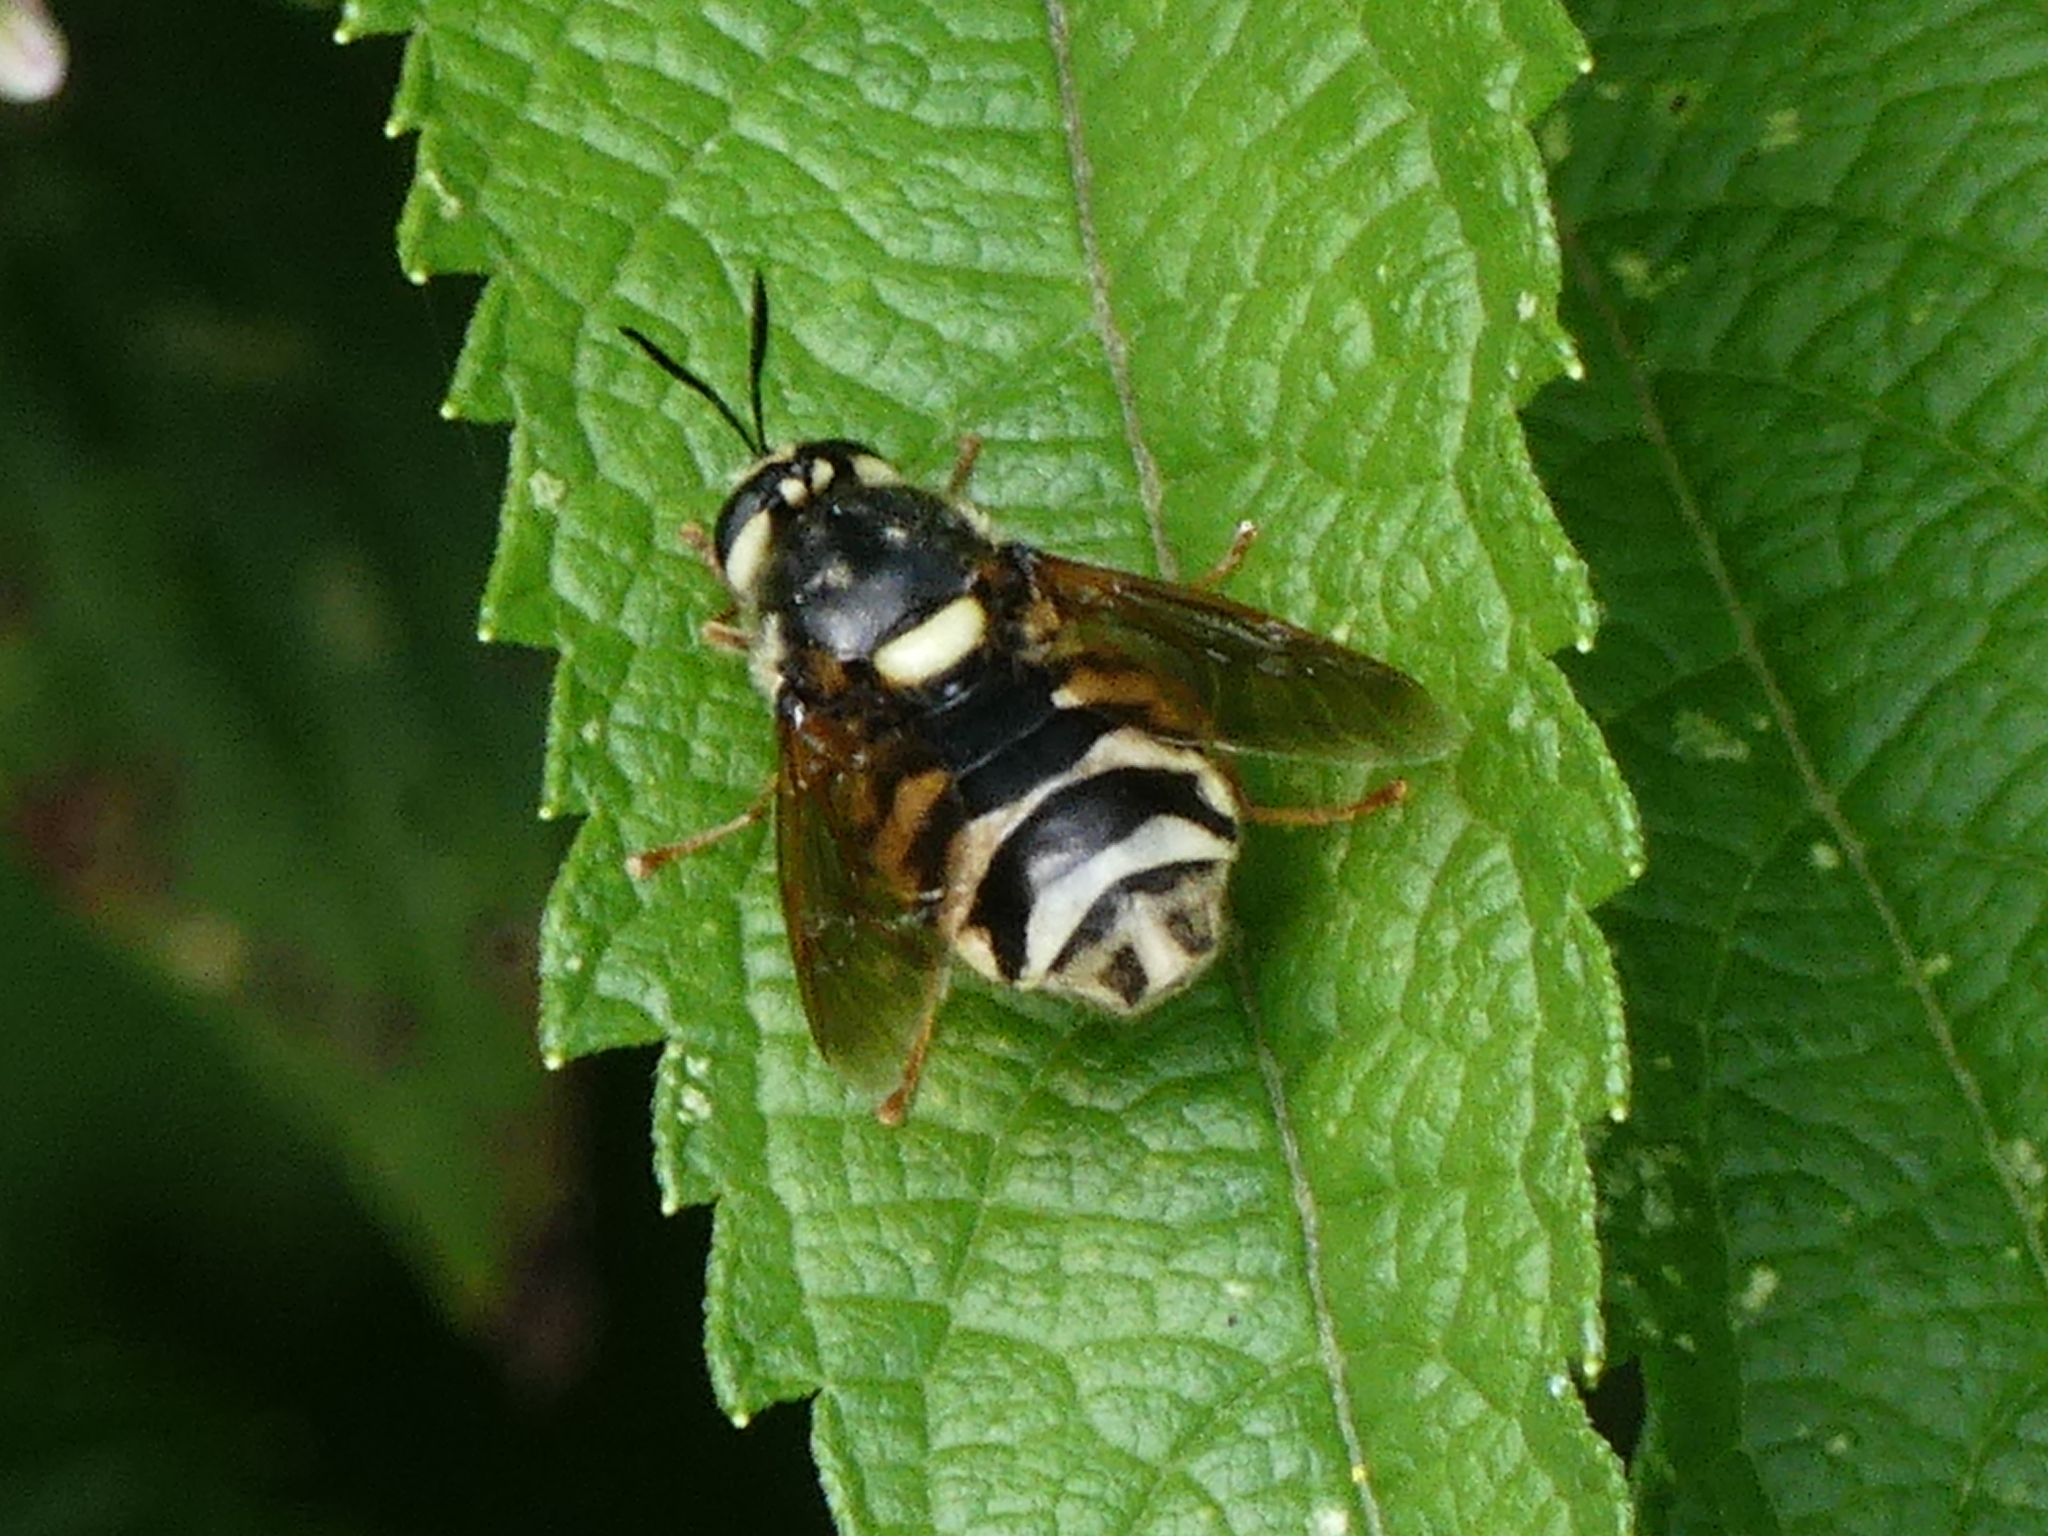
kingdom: Animalia
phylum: Arthropoda
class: Insecta
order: Diptera
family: Stratiomyidae
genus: Stratiomys
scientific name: Stratiomys badia
